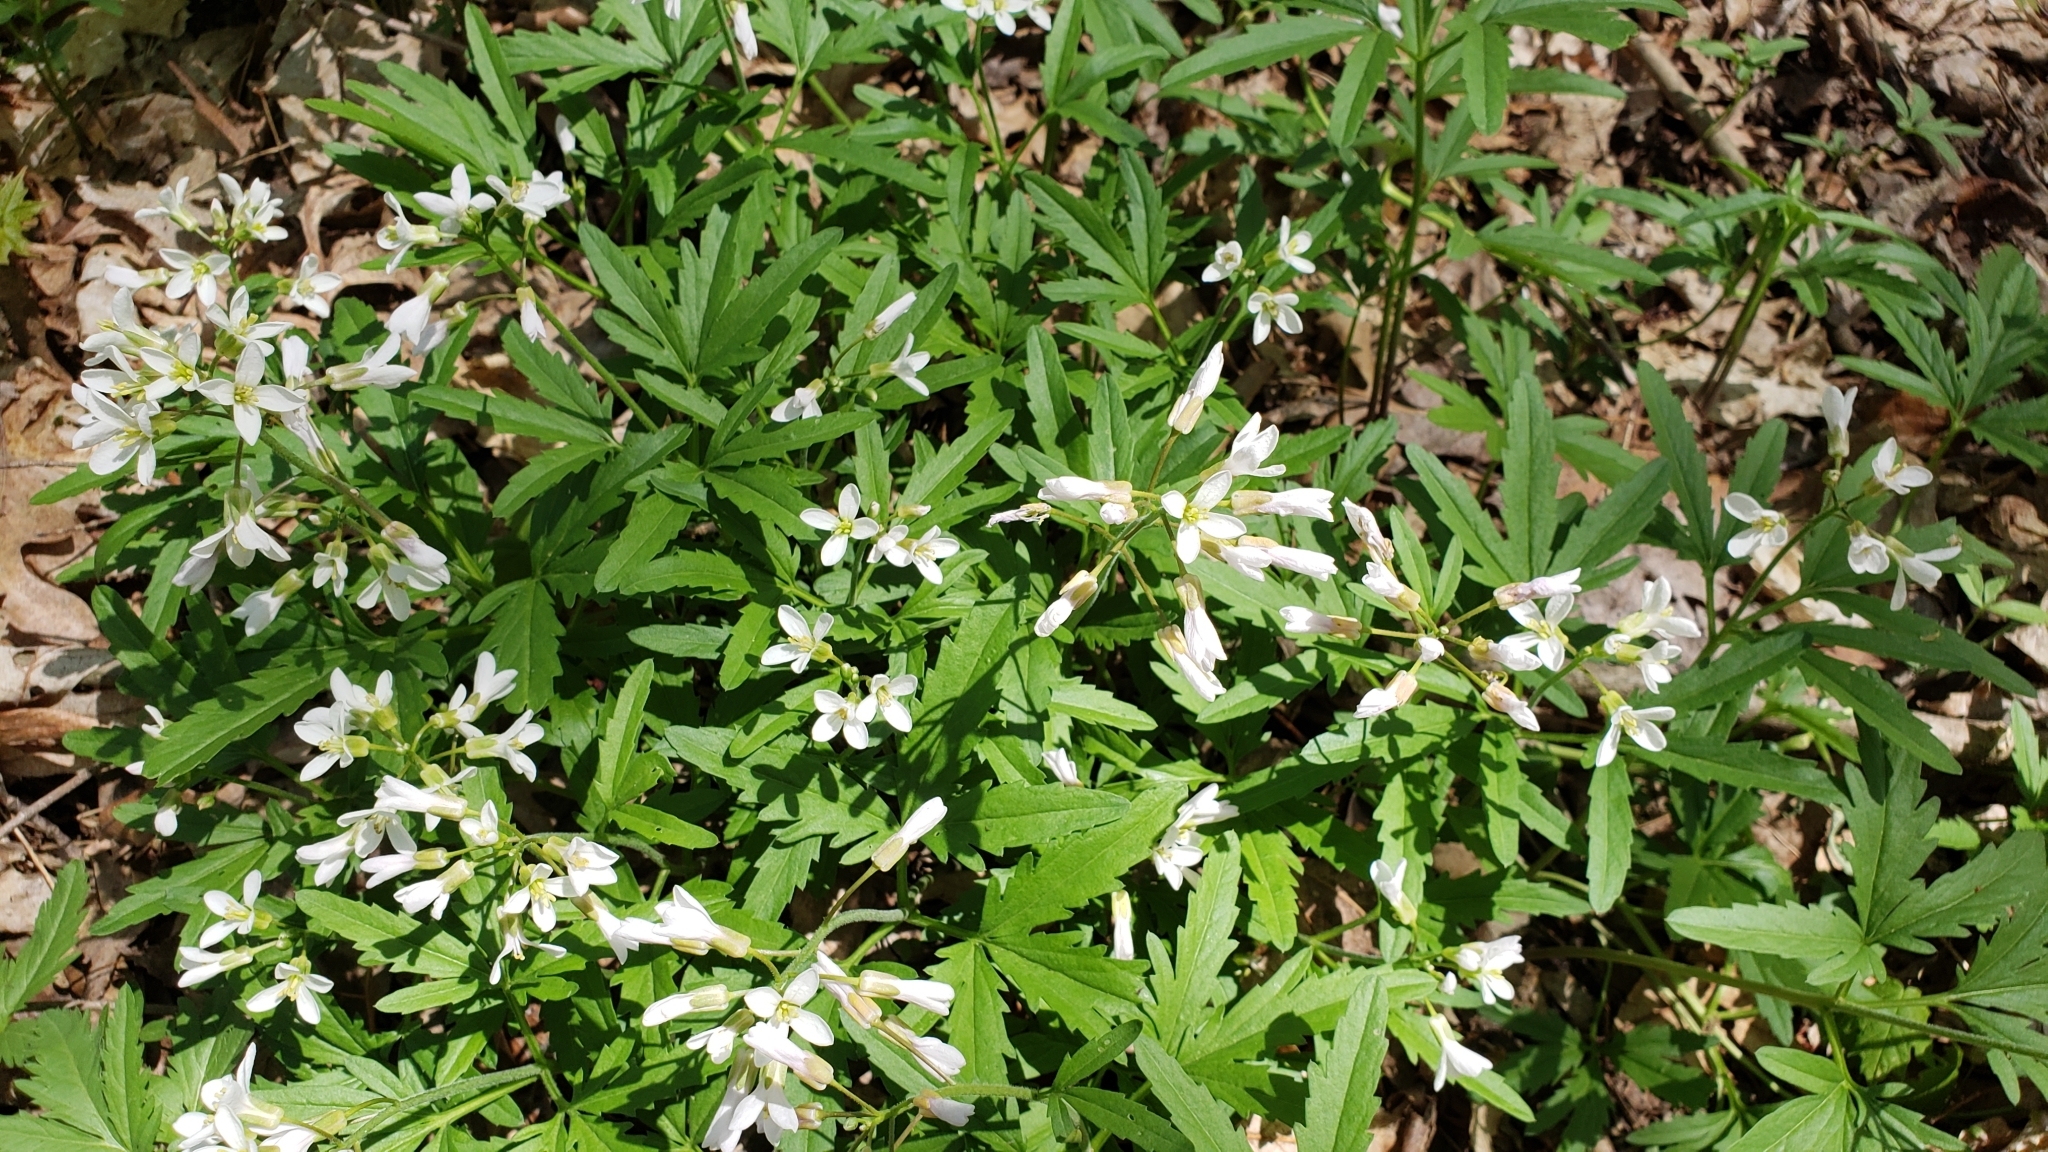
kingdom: Plantae
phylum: Tracheophyta
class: Magnoliopsida
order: Brassicales
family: Brassicaceae
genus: Cardamine
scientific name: Cardamine concatenata
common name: Cut-leaf toothcup
